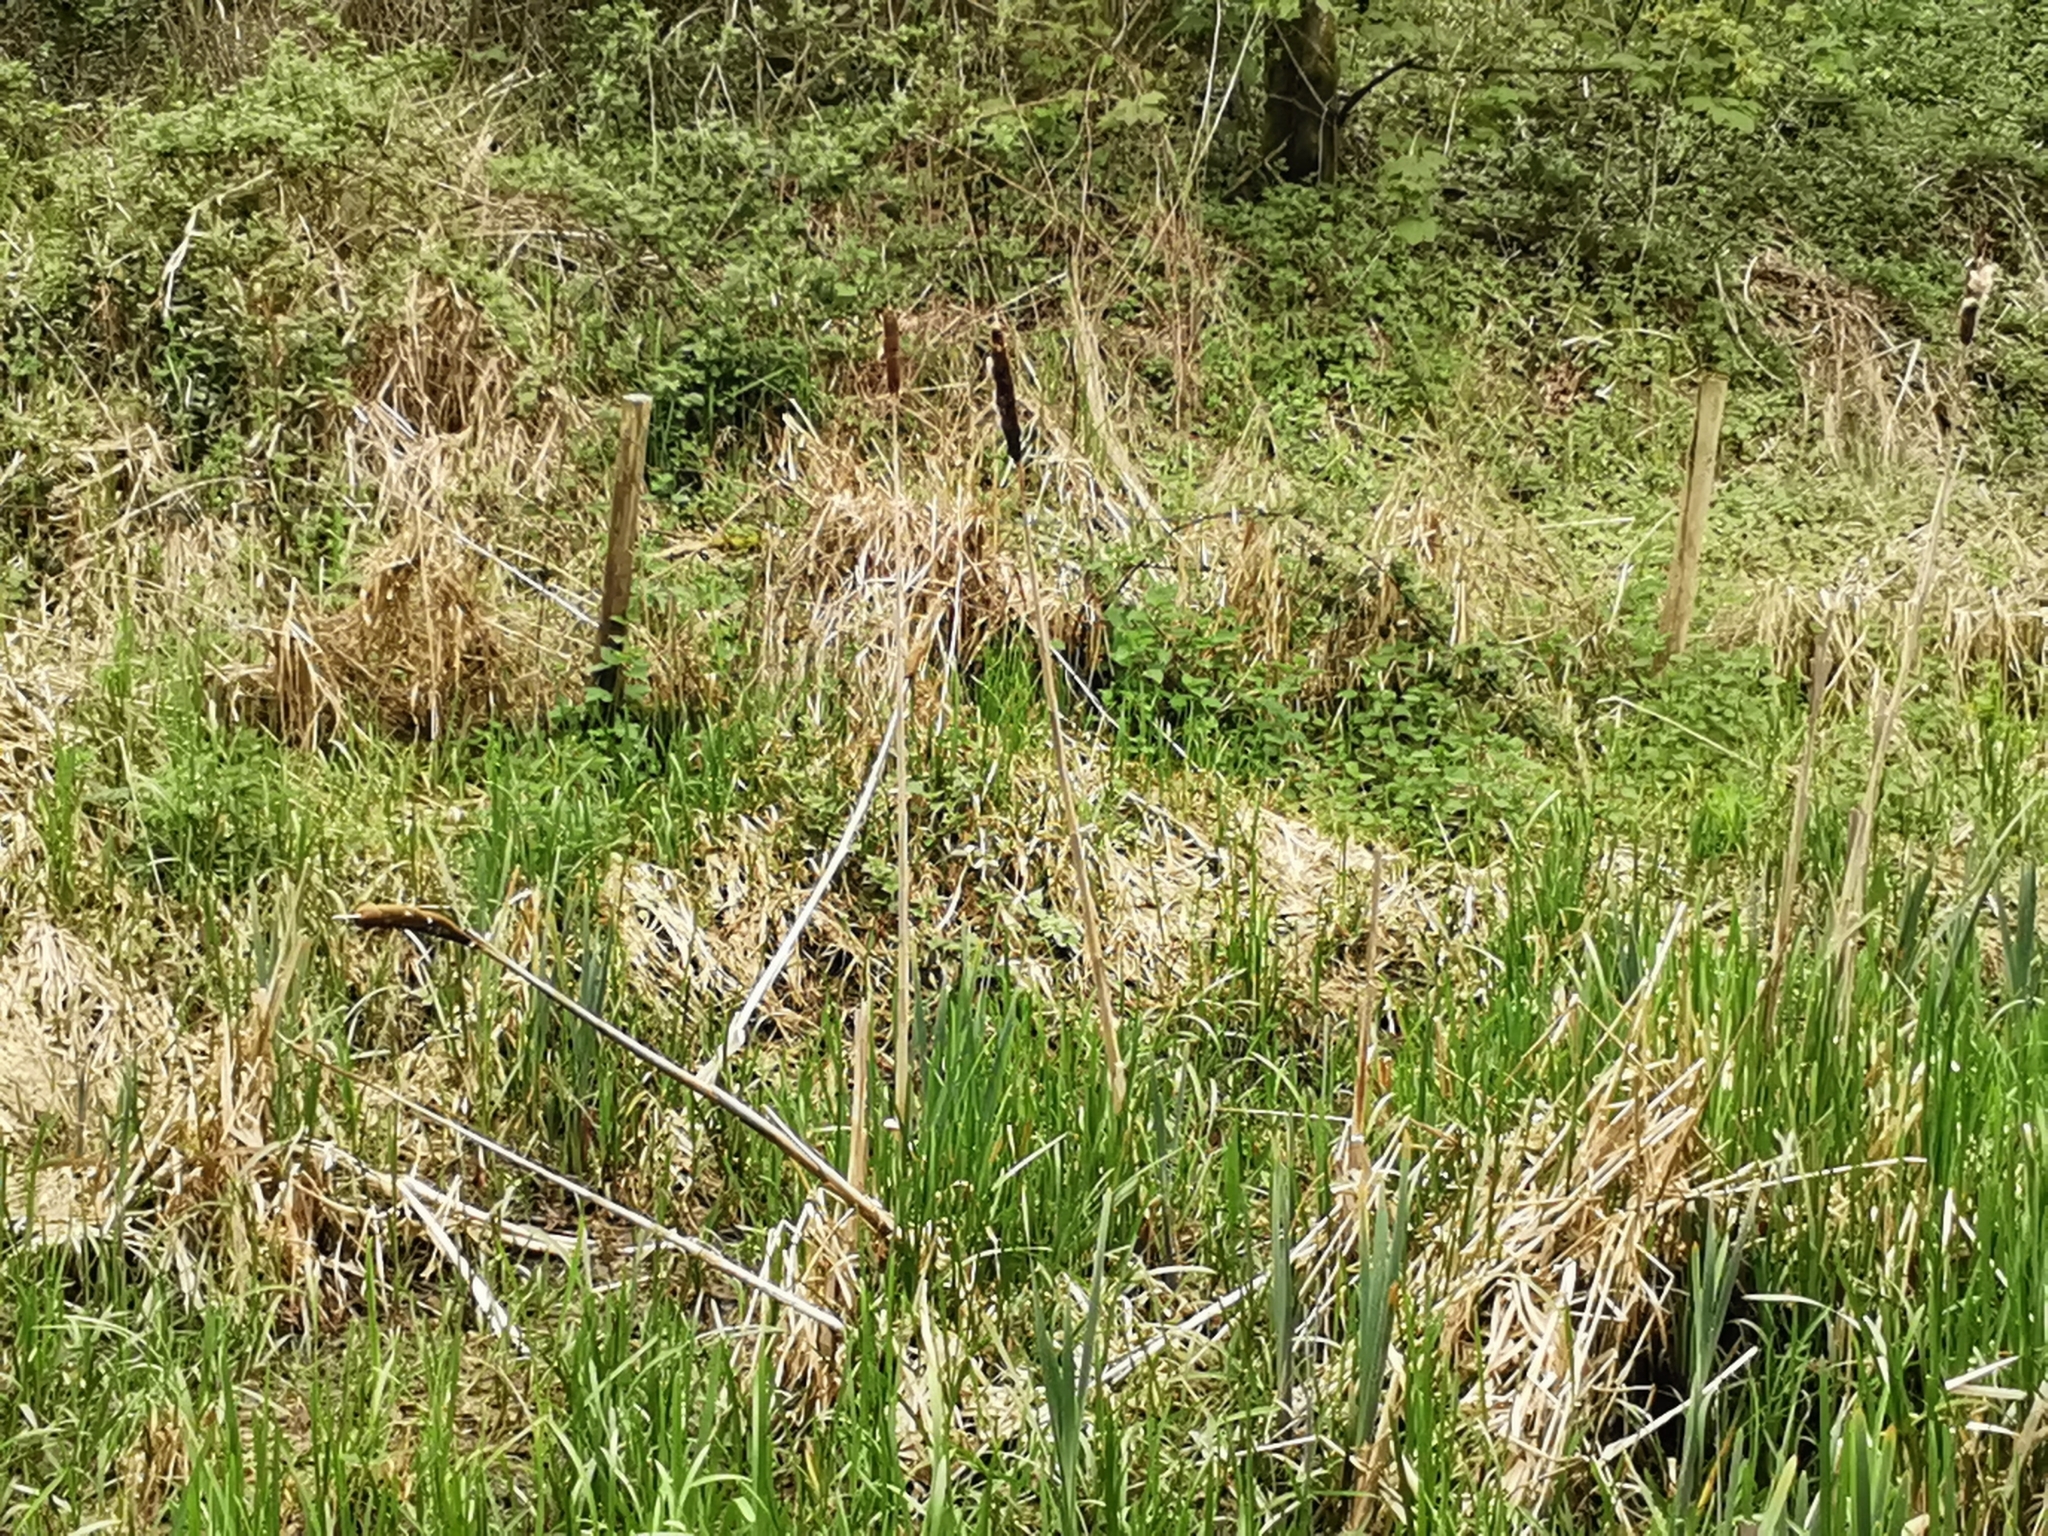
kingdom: Plantae
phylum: Tracheophyta
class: Liliopsida
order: Poales
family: Typhaceae
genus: Typha
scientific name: Typha latifolia
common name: Broadleaf cattail
